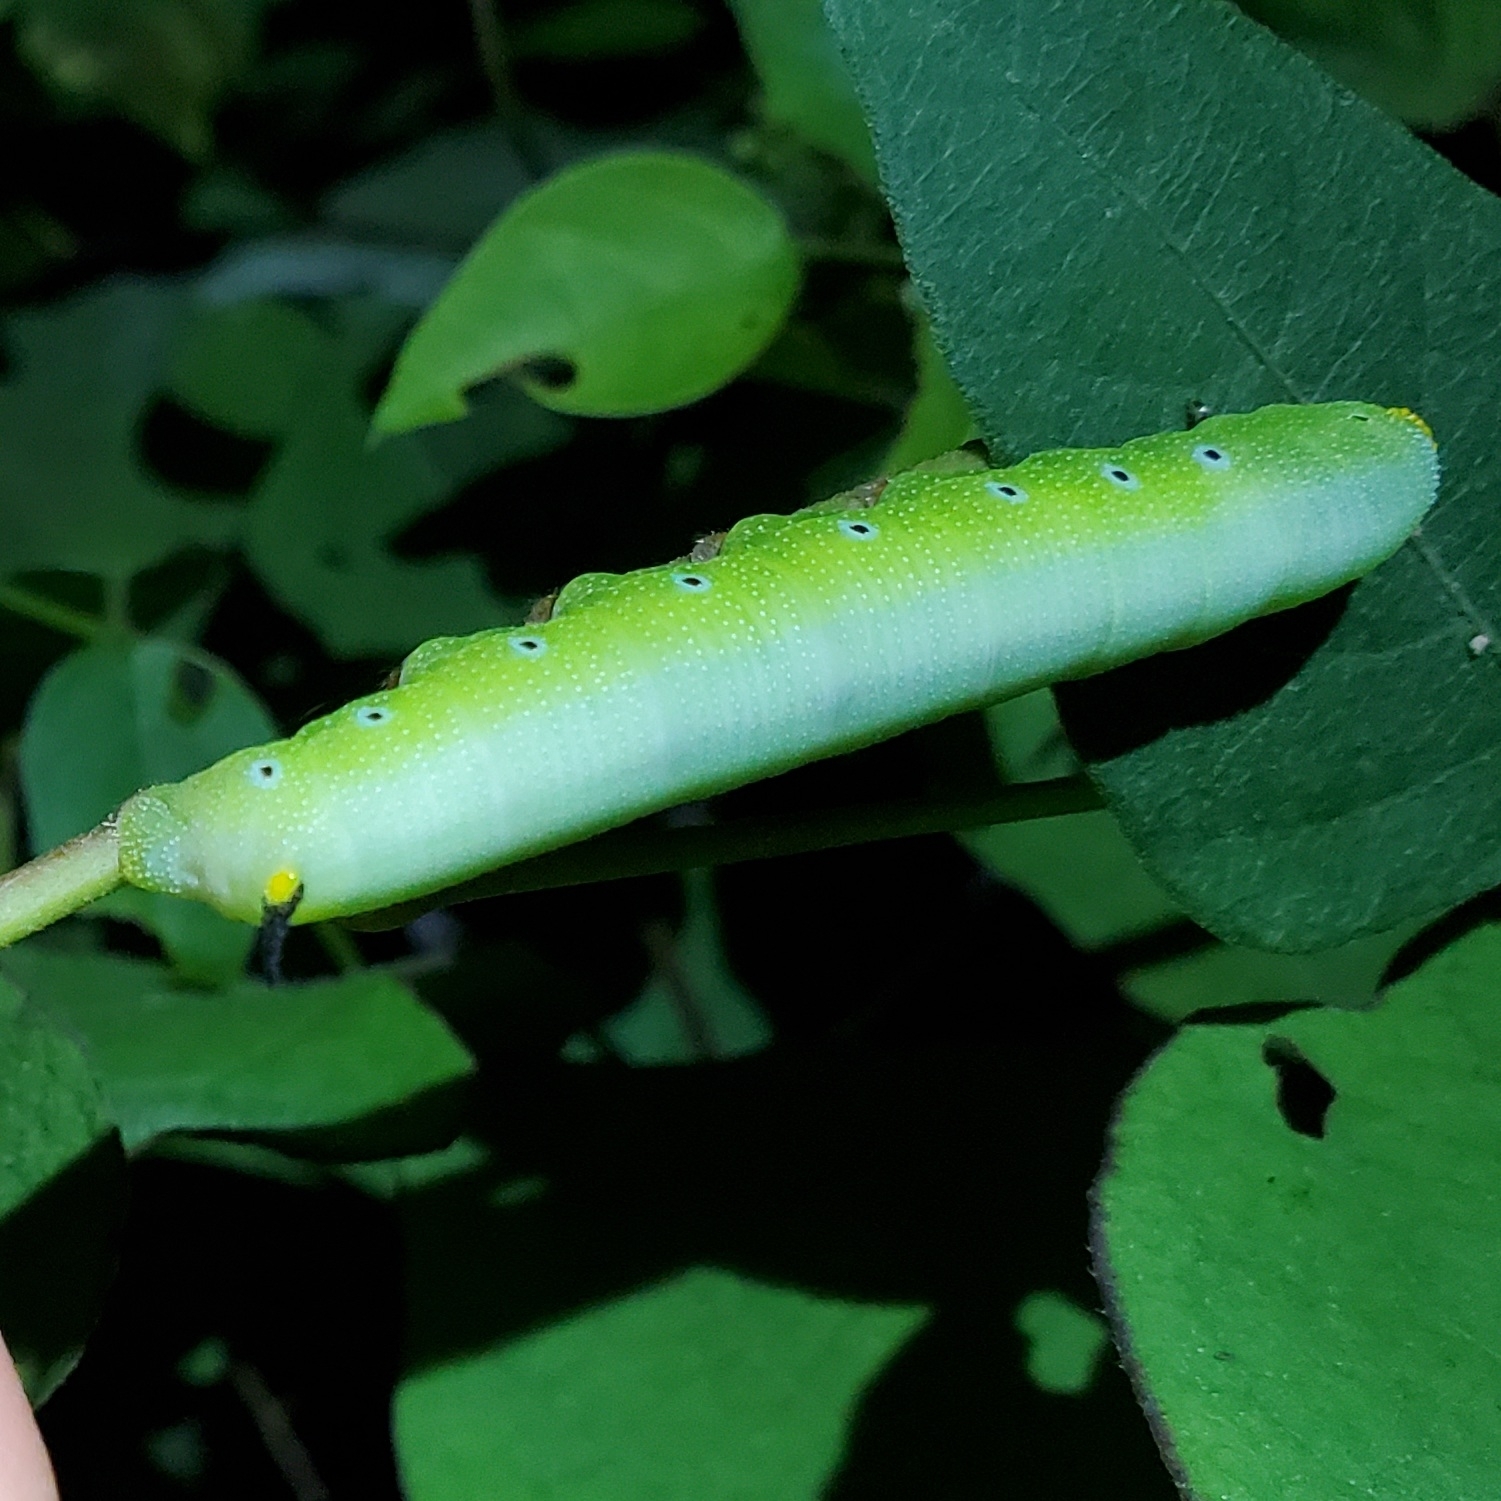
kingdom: Animalia
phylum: Arthropoda
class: Insecta
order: Lepidoptera
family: Sphingidae
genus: Hemaris
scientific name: Hemaris diffinis
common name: Bumblebee moth
